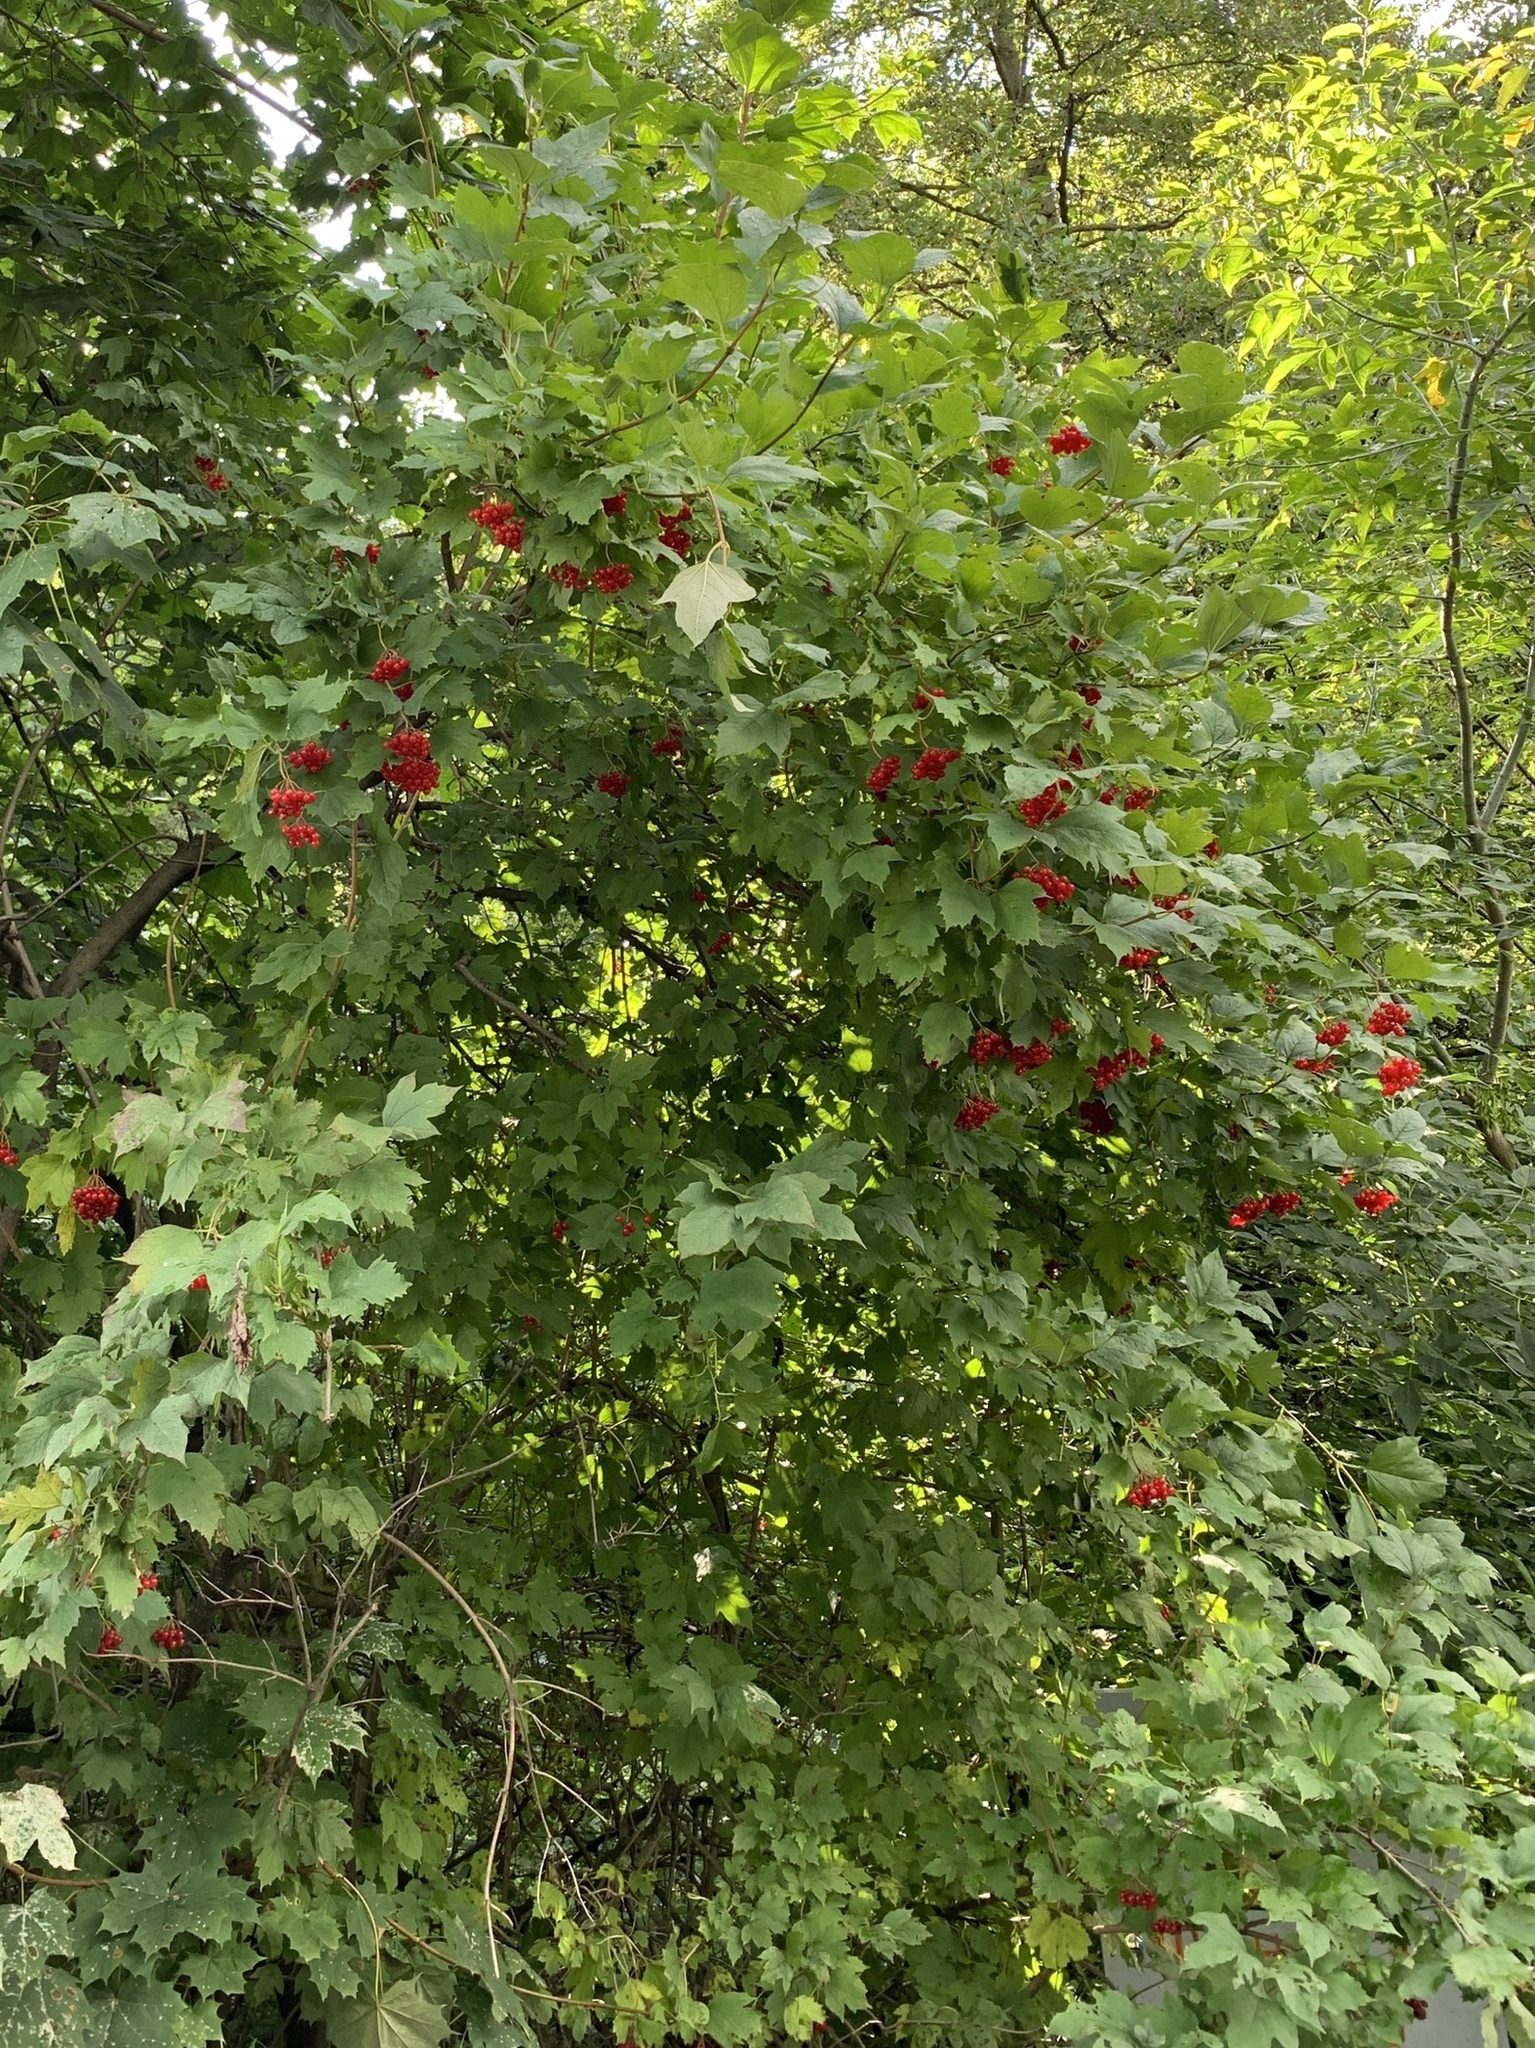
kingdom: Plantae
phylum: Tracheophyta
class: Magnoliopsida
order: Dipsacales
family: Viburnaceae
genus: Viburnum
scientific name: Viburnum opulus
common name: Guelder-rose
